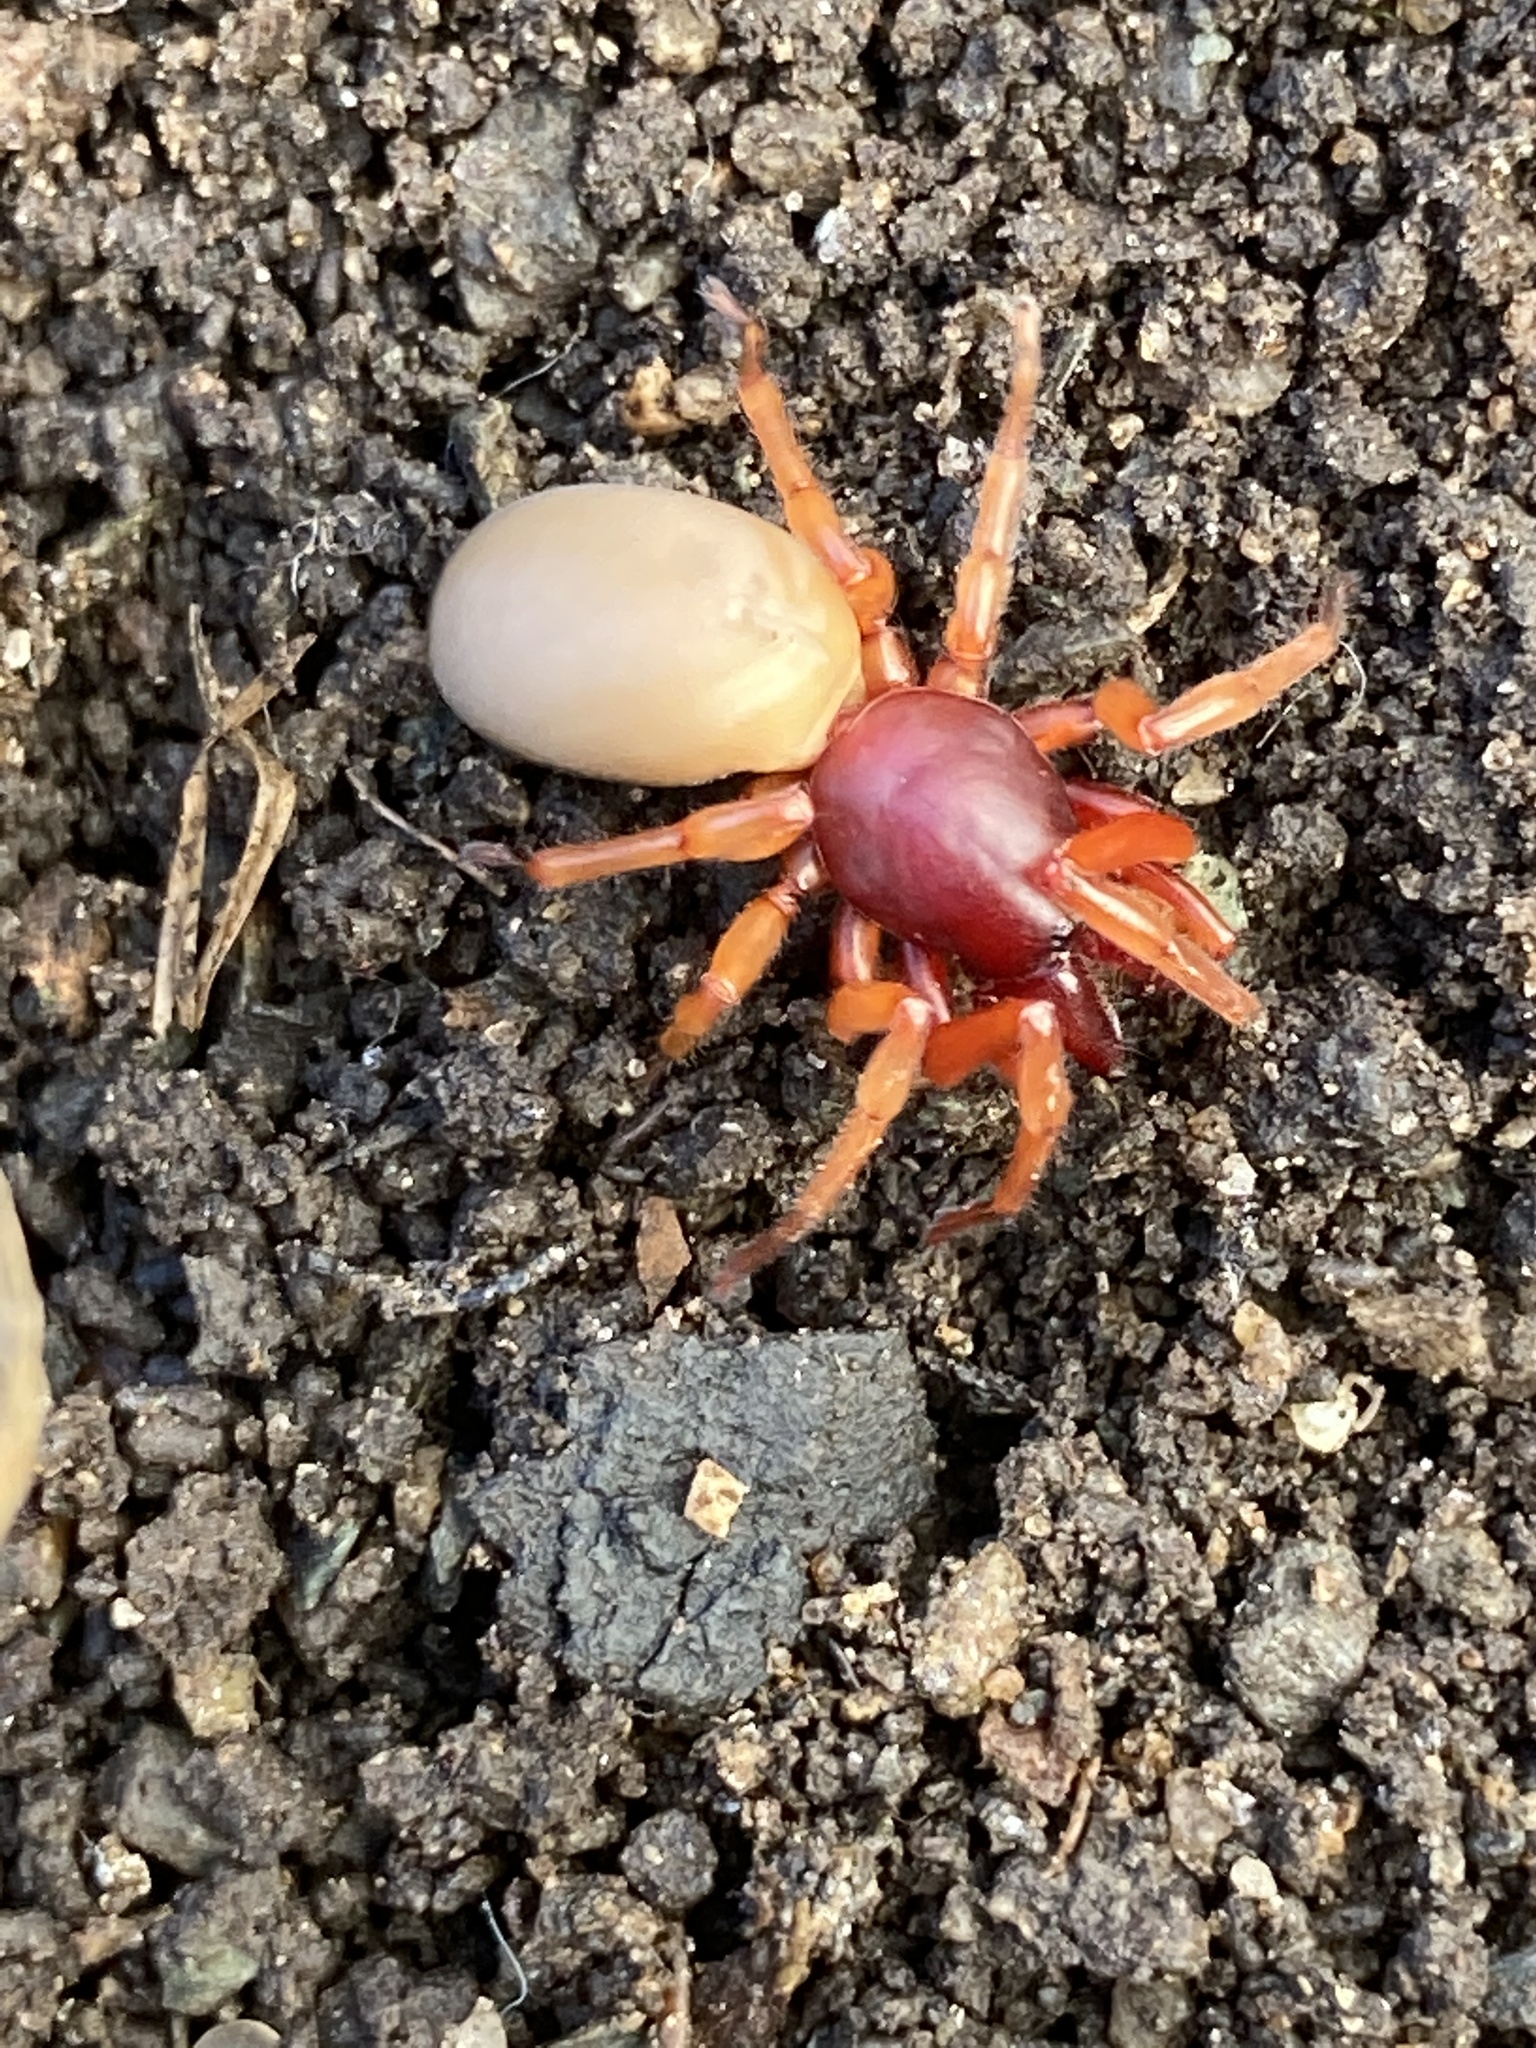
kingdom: Animalia
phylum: Arthropoda
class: Arachnida
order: Araneae
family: Dysderidae
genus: Dysdera
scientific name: Dysdera crocata
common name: Woodlouse spider
